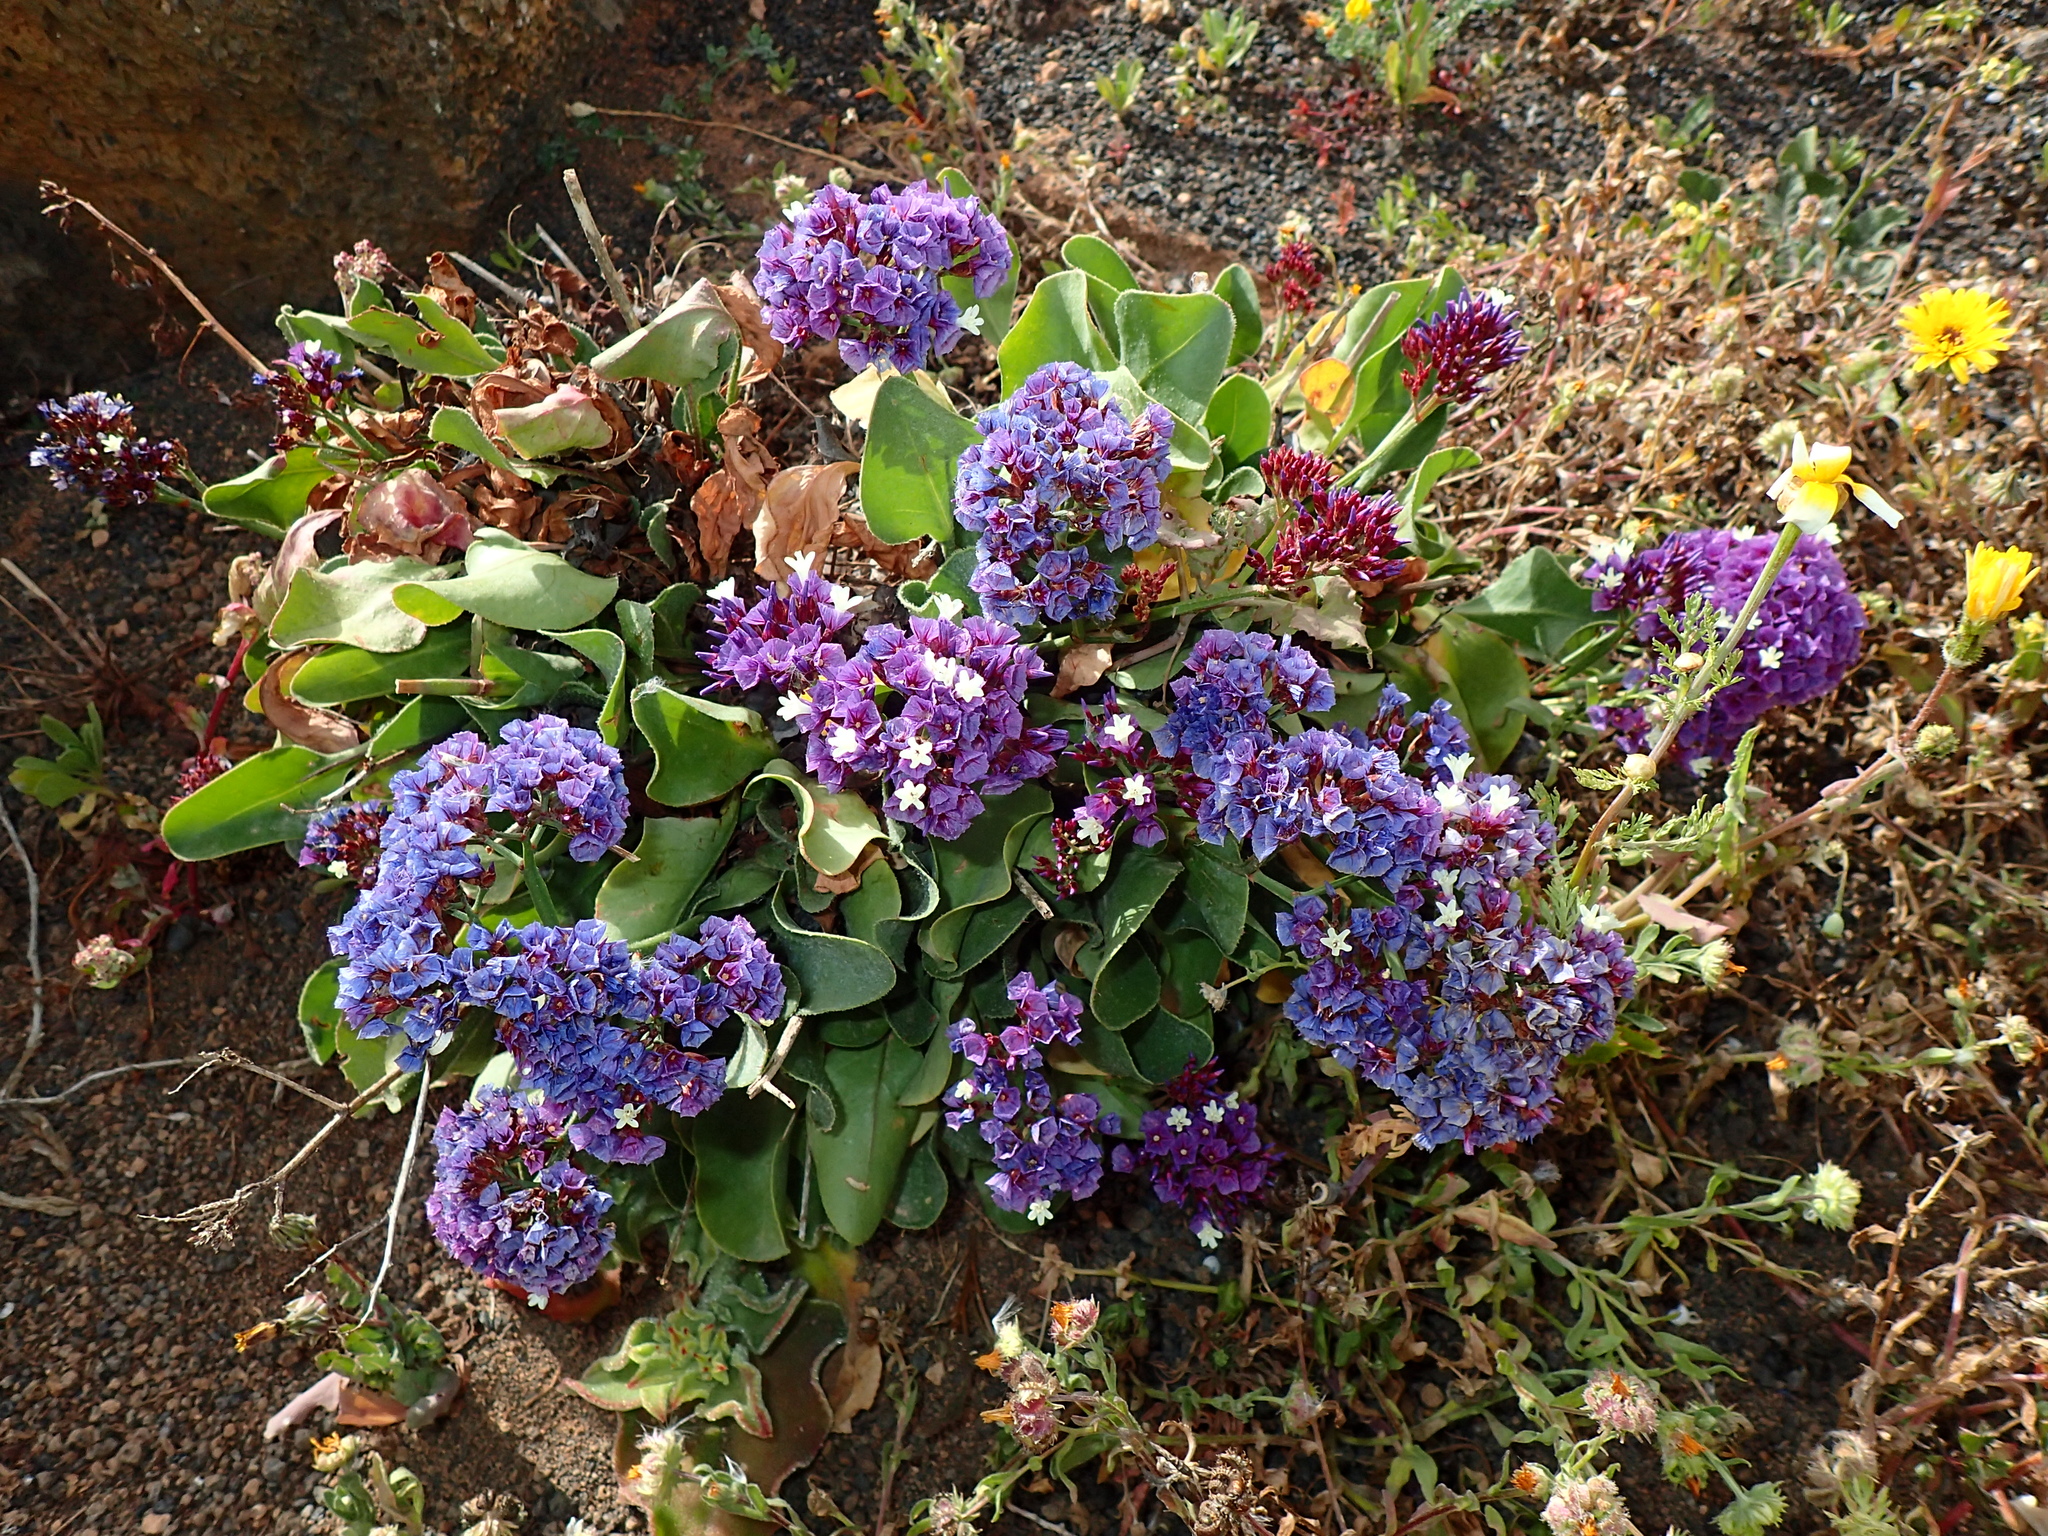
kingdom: Plantae
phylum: Tracheophyta
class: Magnoliopsida
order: Caryophyllales
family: Plumbaginaceae
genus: Limonium
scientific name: Limonium puberulum
